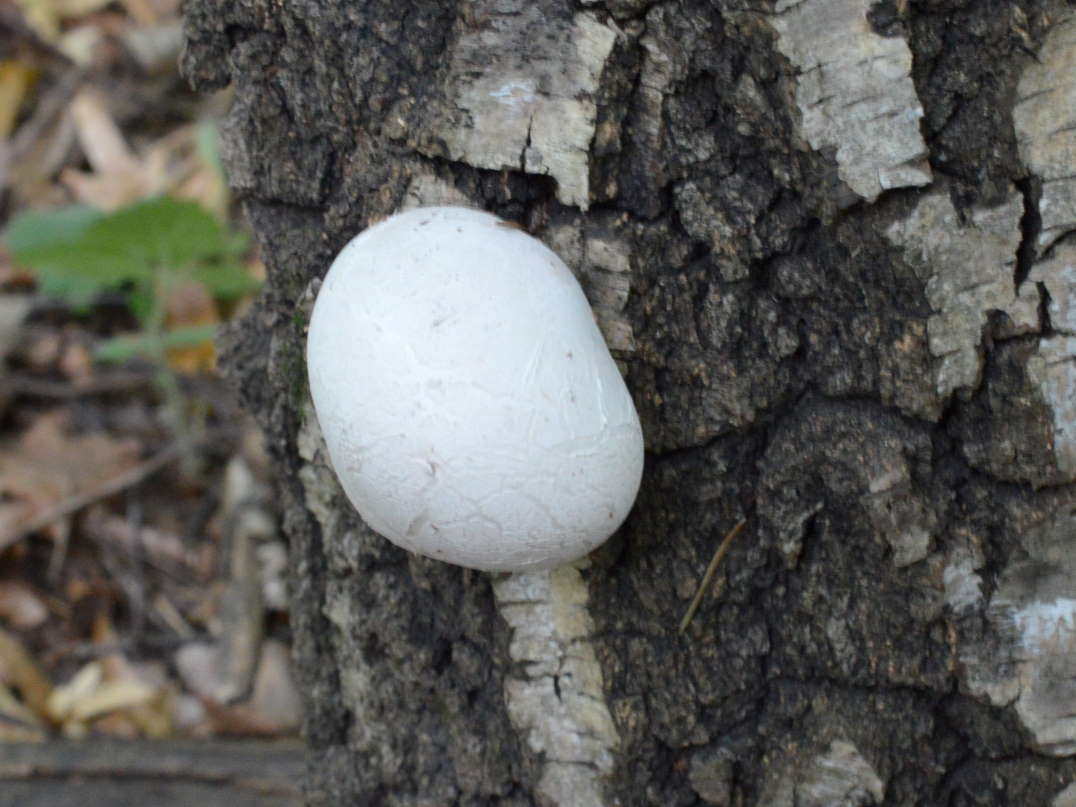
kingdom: Fungi
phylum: Basidiomycota
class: Agaricomycetes
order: Polyporales
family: Fomitopsidaceae
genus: Fomitopsis
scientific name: Fomitopsis betulina
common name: Birch polypore
